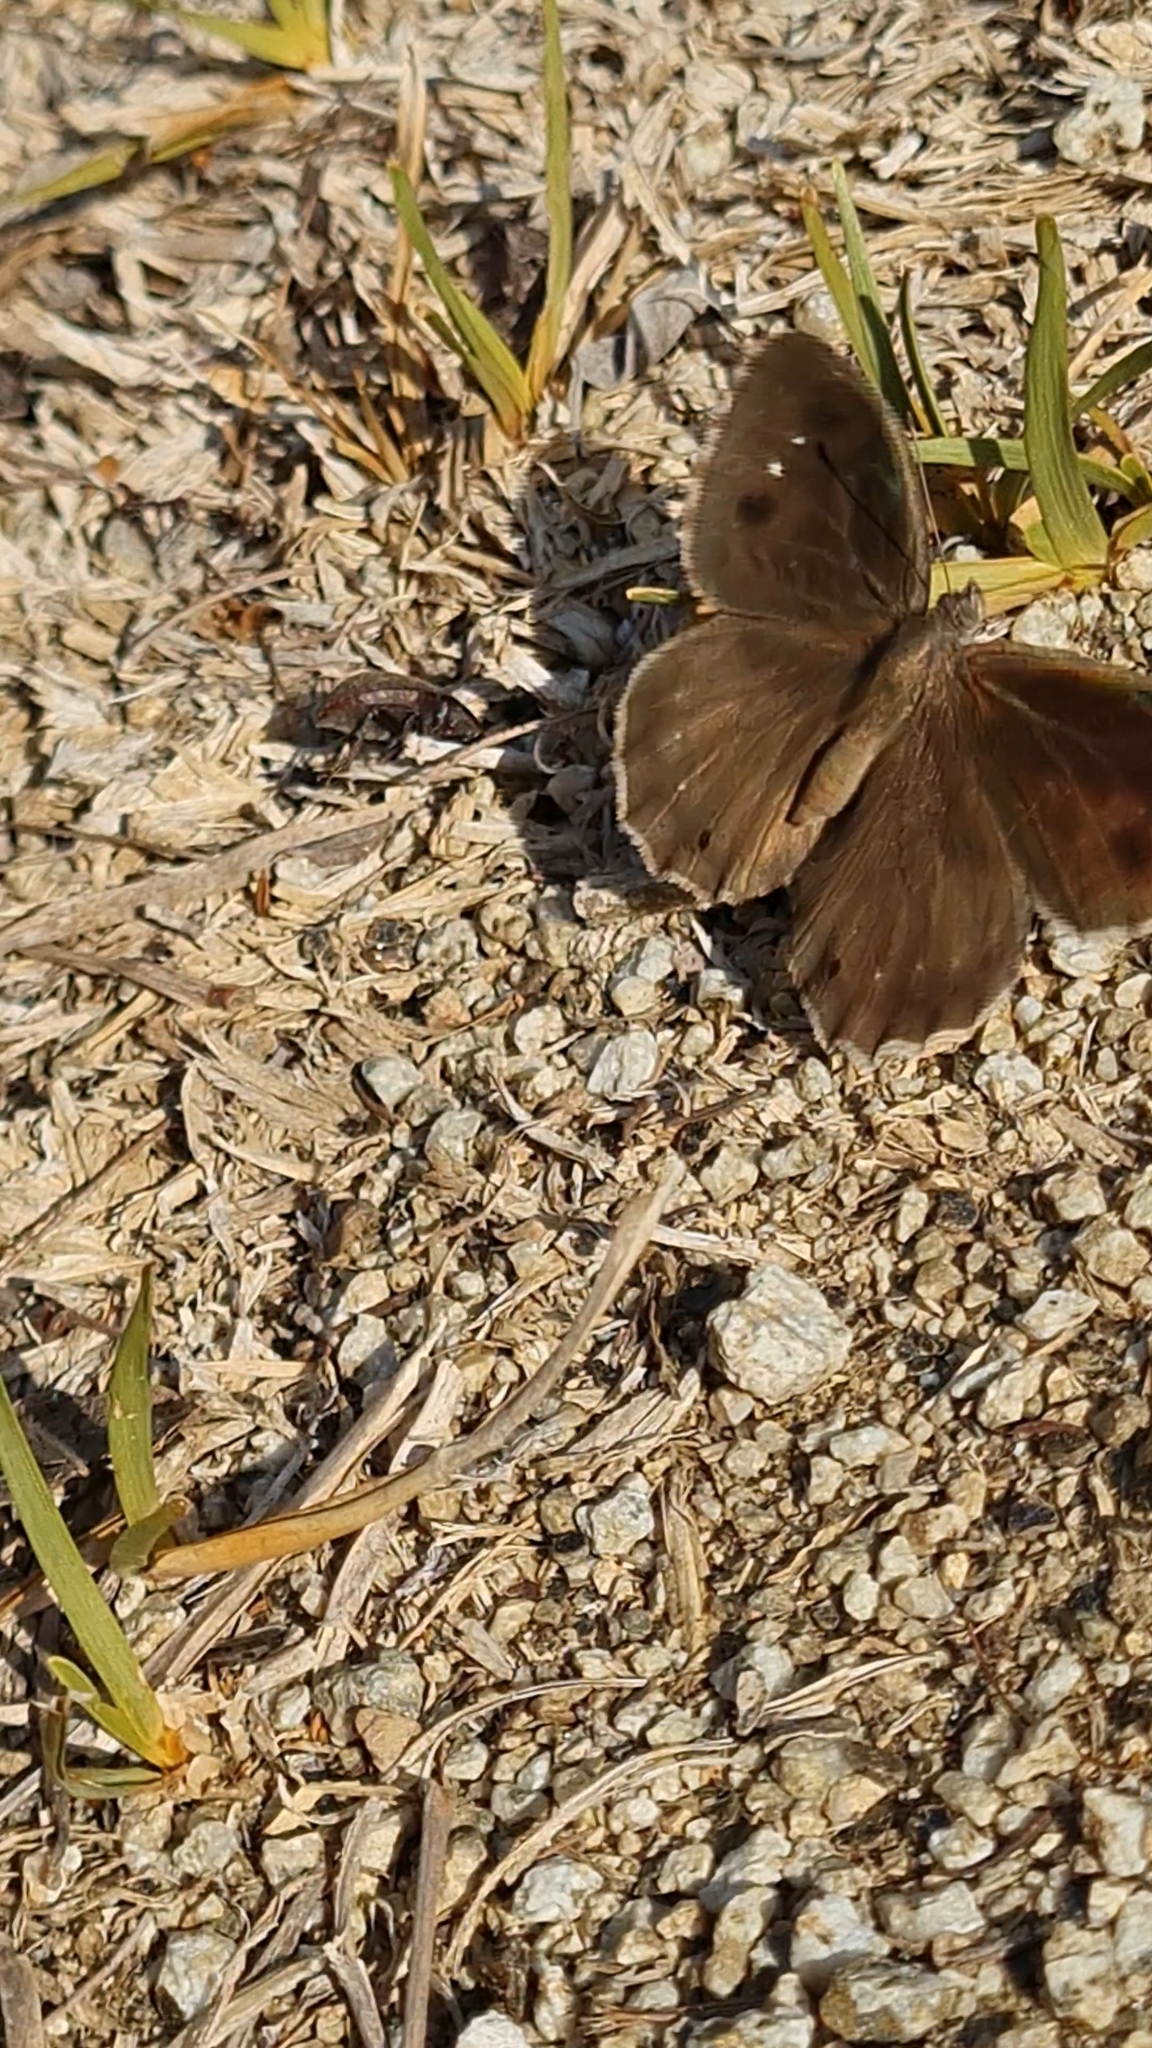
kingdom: Animalia
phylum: Arthropoda
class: Insecta
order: Lepidoptera
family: Nymphalidae
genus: Hipparchia
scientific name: Hipparchia statilinus
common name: Tree grayling
